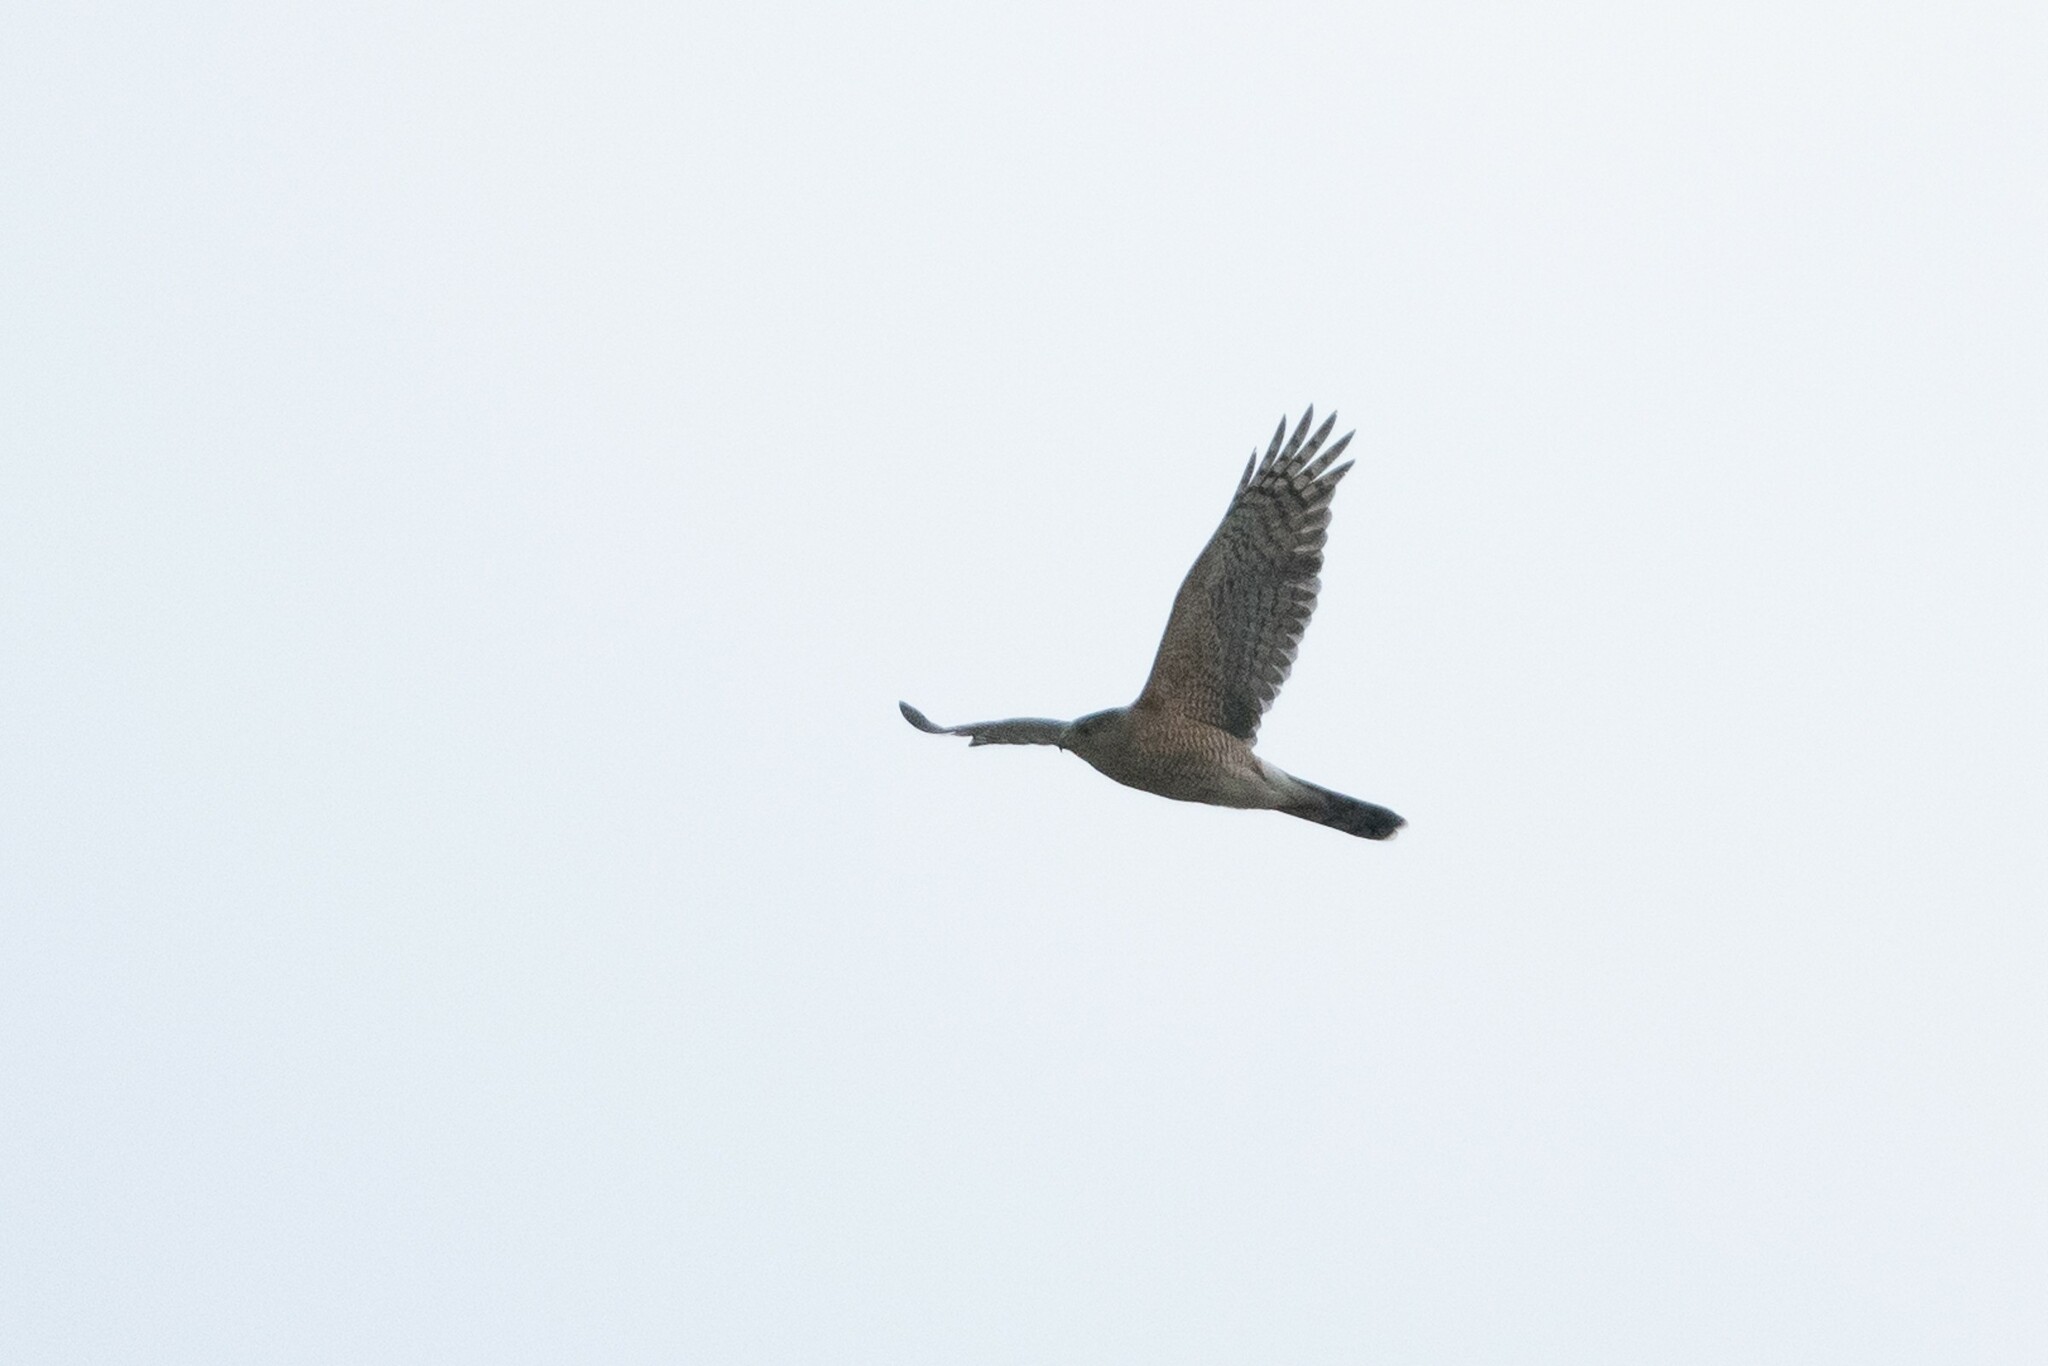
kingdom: Animalia
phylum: Chordata
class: Aves
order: Accipitriformes
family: Accipitridae
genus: Accipiter
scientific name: Accipiter cooperii
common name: Cooper's hawk
